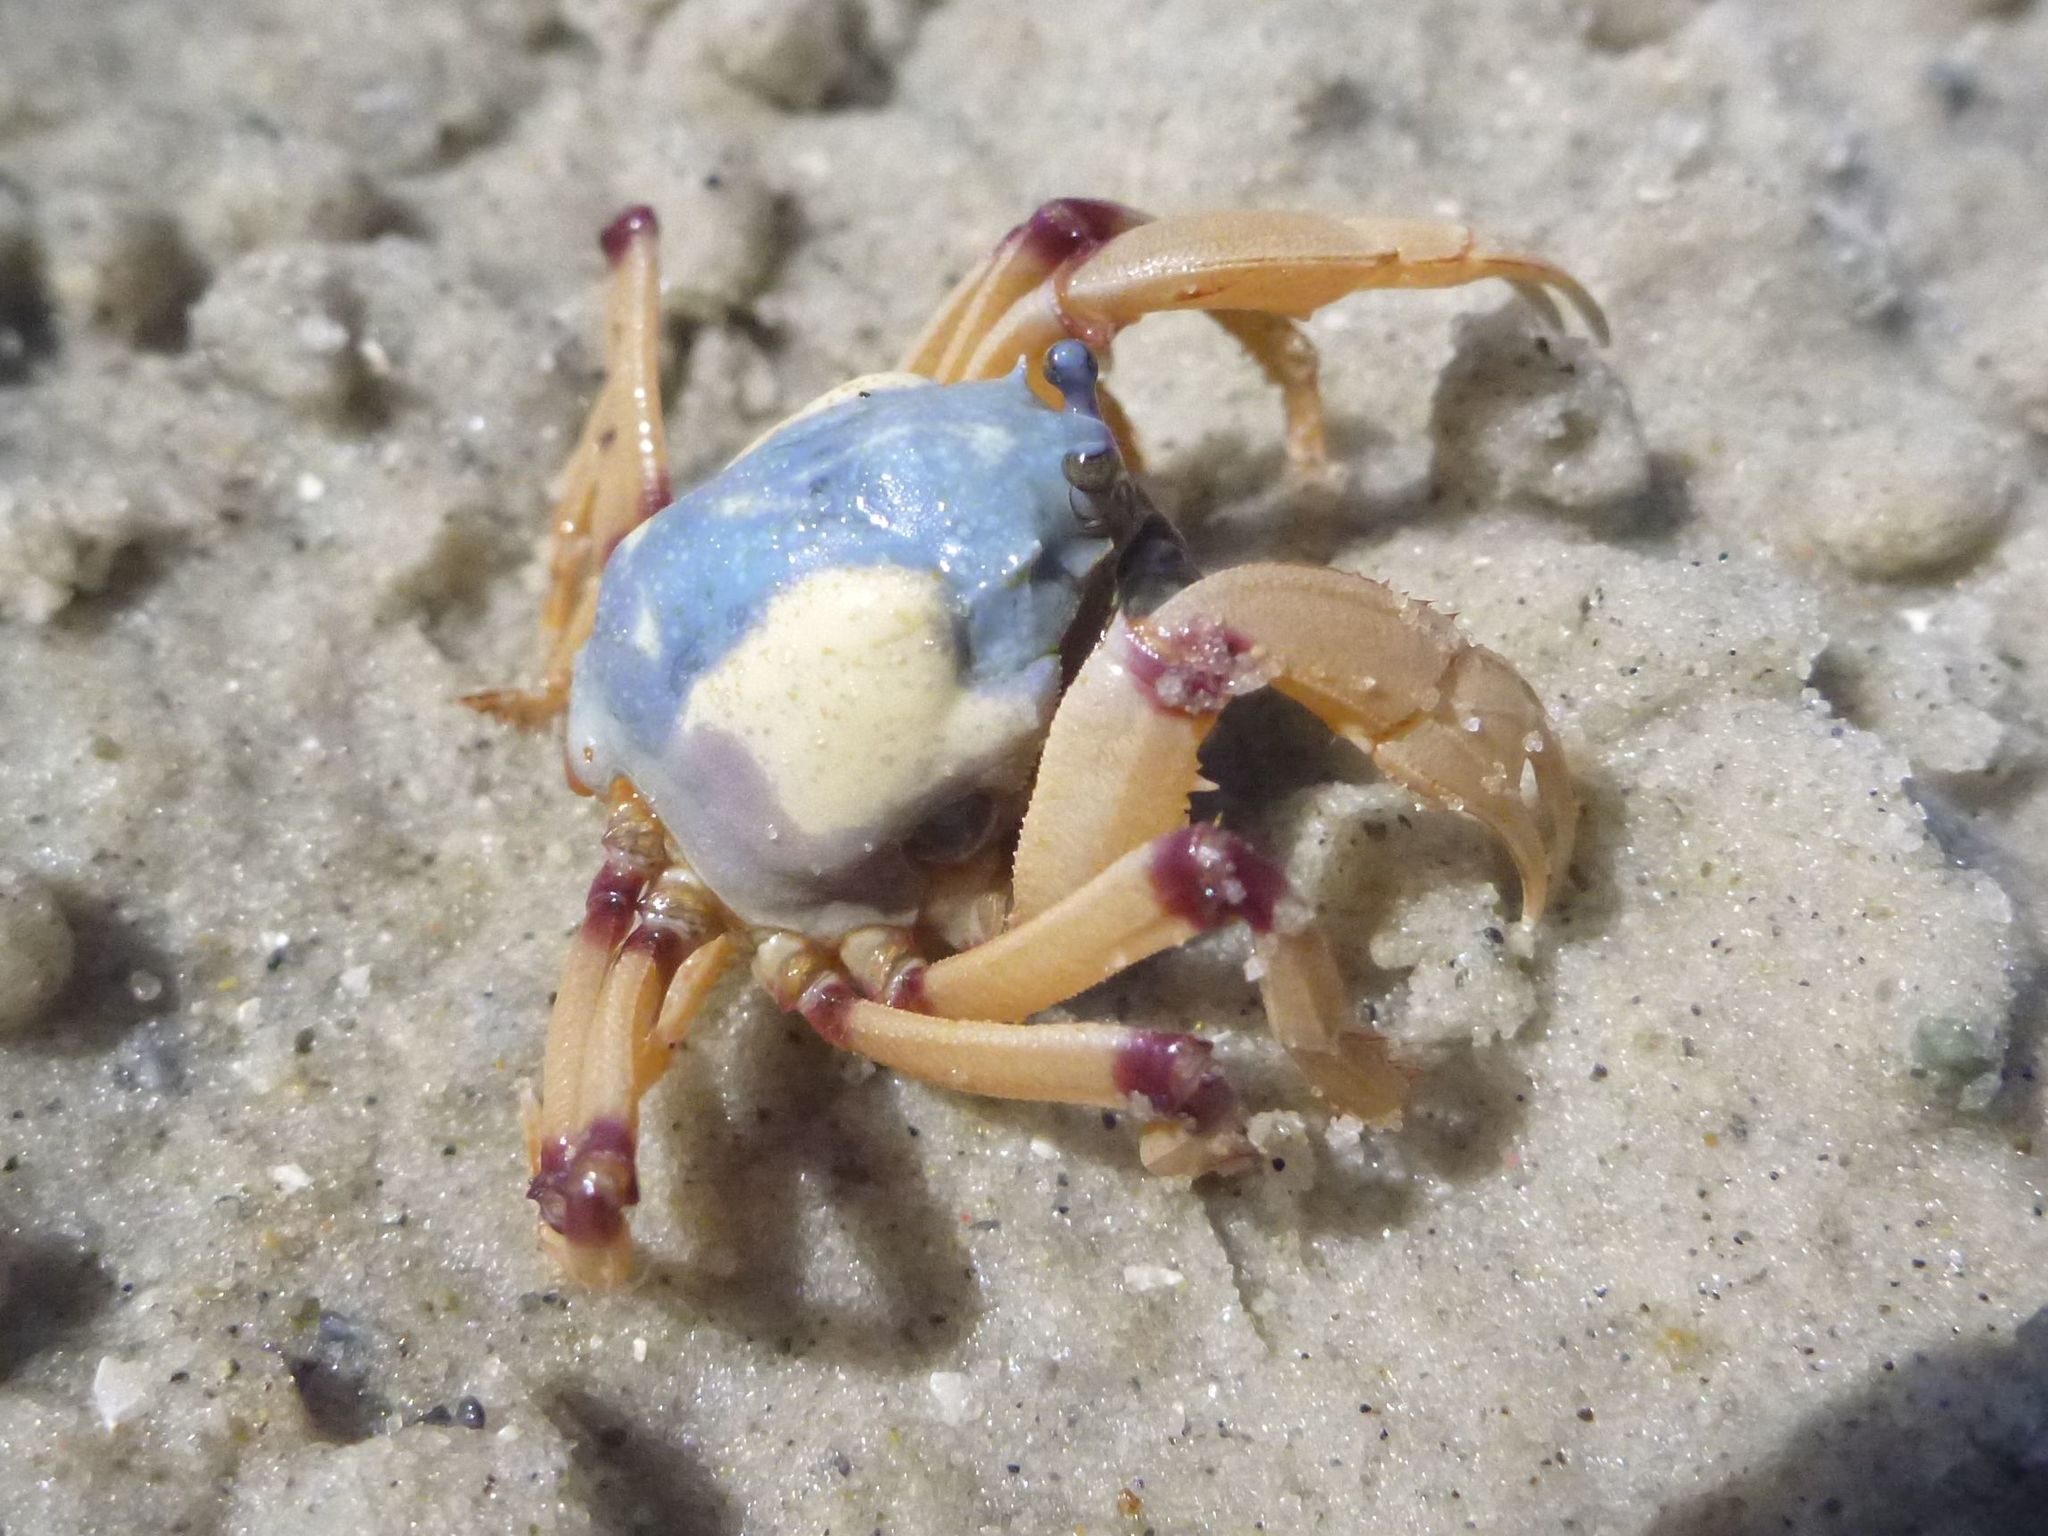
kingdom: Animalia
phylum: Arthropoda
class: Malacostraca
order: Decapoda
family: Mictyridae
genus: Mictyris
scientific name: Mictyris longicarpus
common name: Light-blue soldier crab
